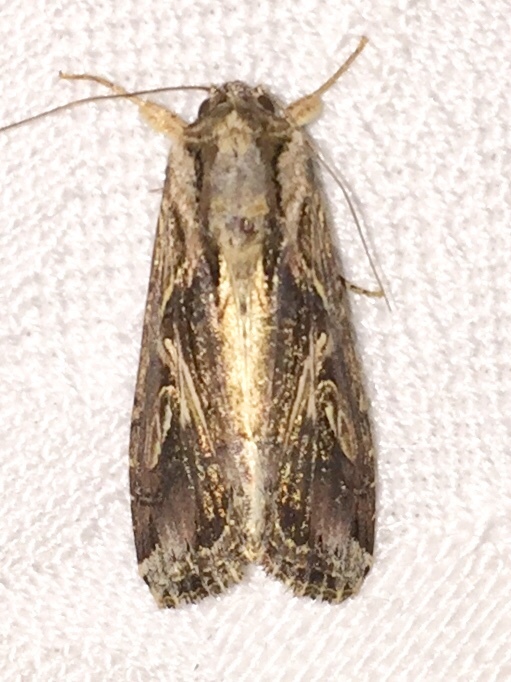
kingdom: Animalia
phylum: Arthropoda
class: Insecta
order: Lepidoptera
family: Noctuidae
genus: Spodoptera
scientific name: Spodoptera dolichos
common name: Sweetpotato armyworm
